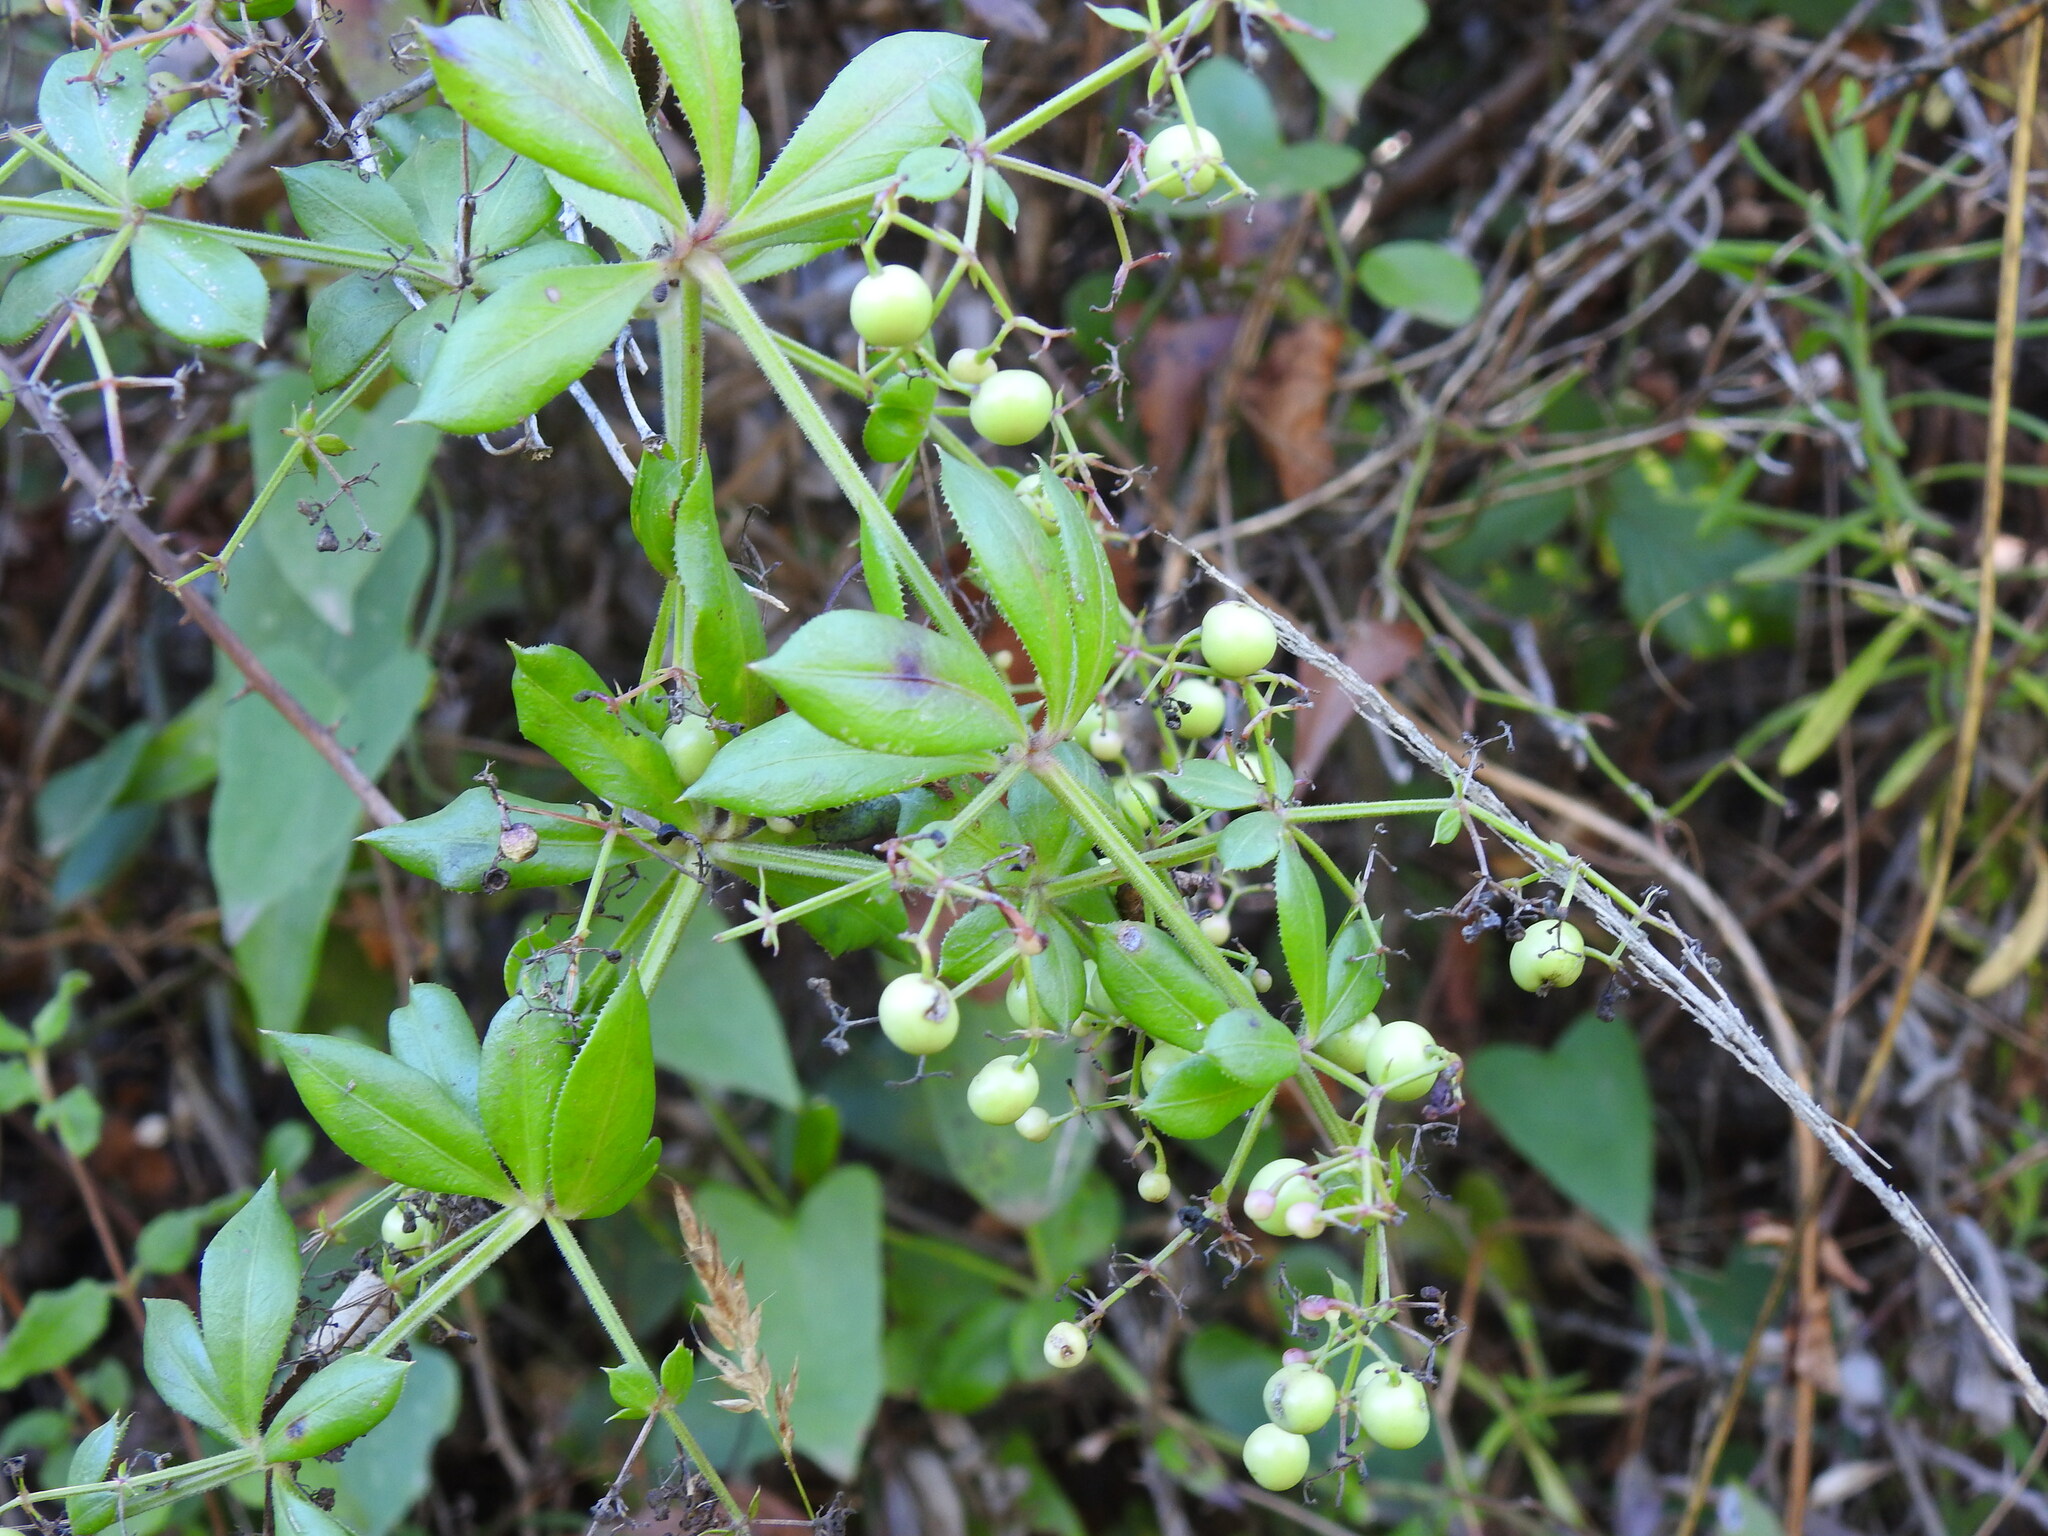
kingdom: Plantae
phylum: Tracheophyta
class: Magnoliopsida
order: Gentianales
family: Rubiaceae
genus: Rubia
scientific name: Rubia peregrina
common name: Wild madder
